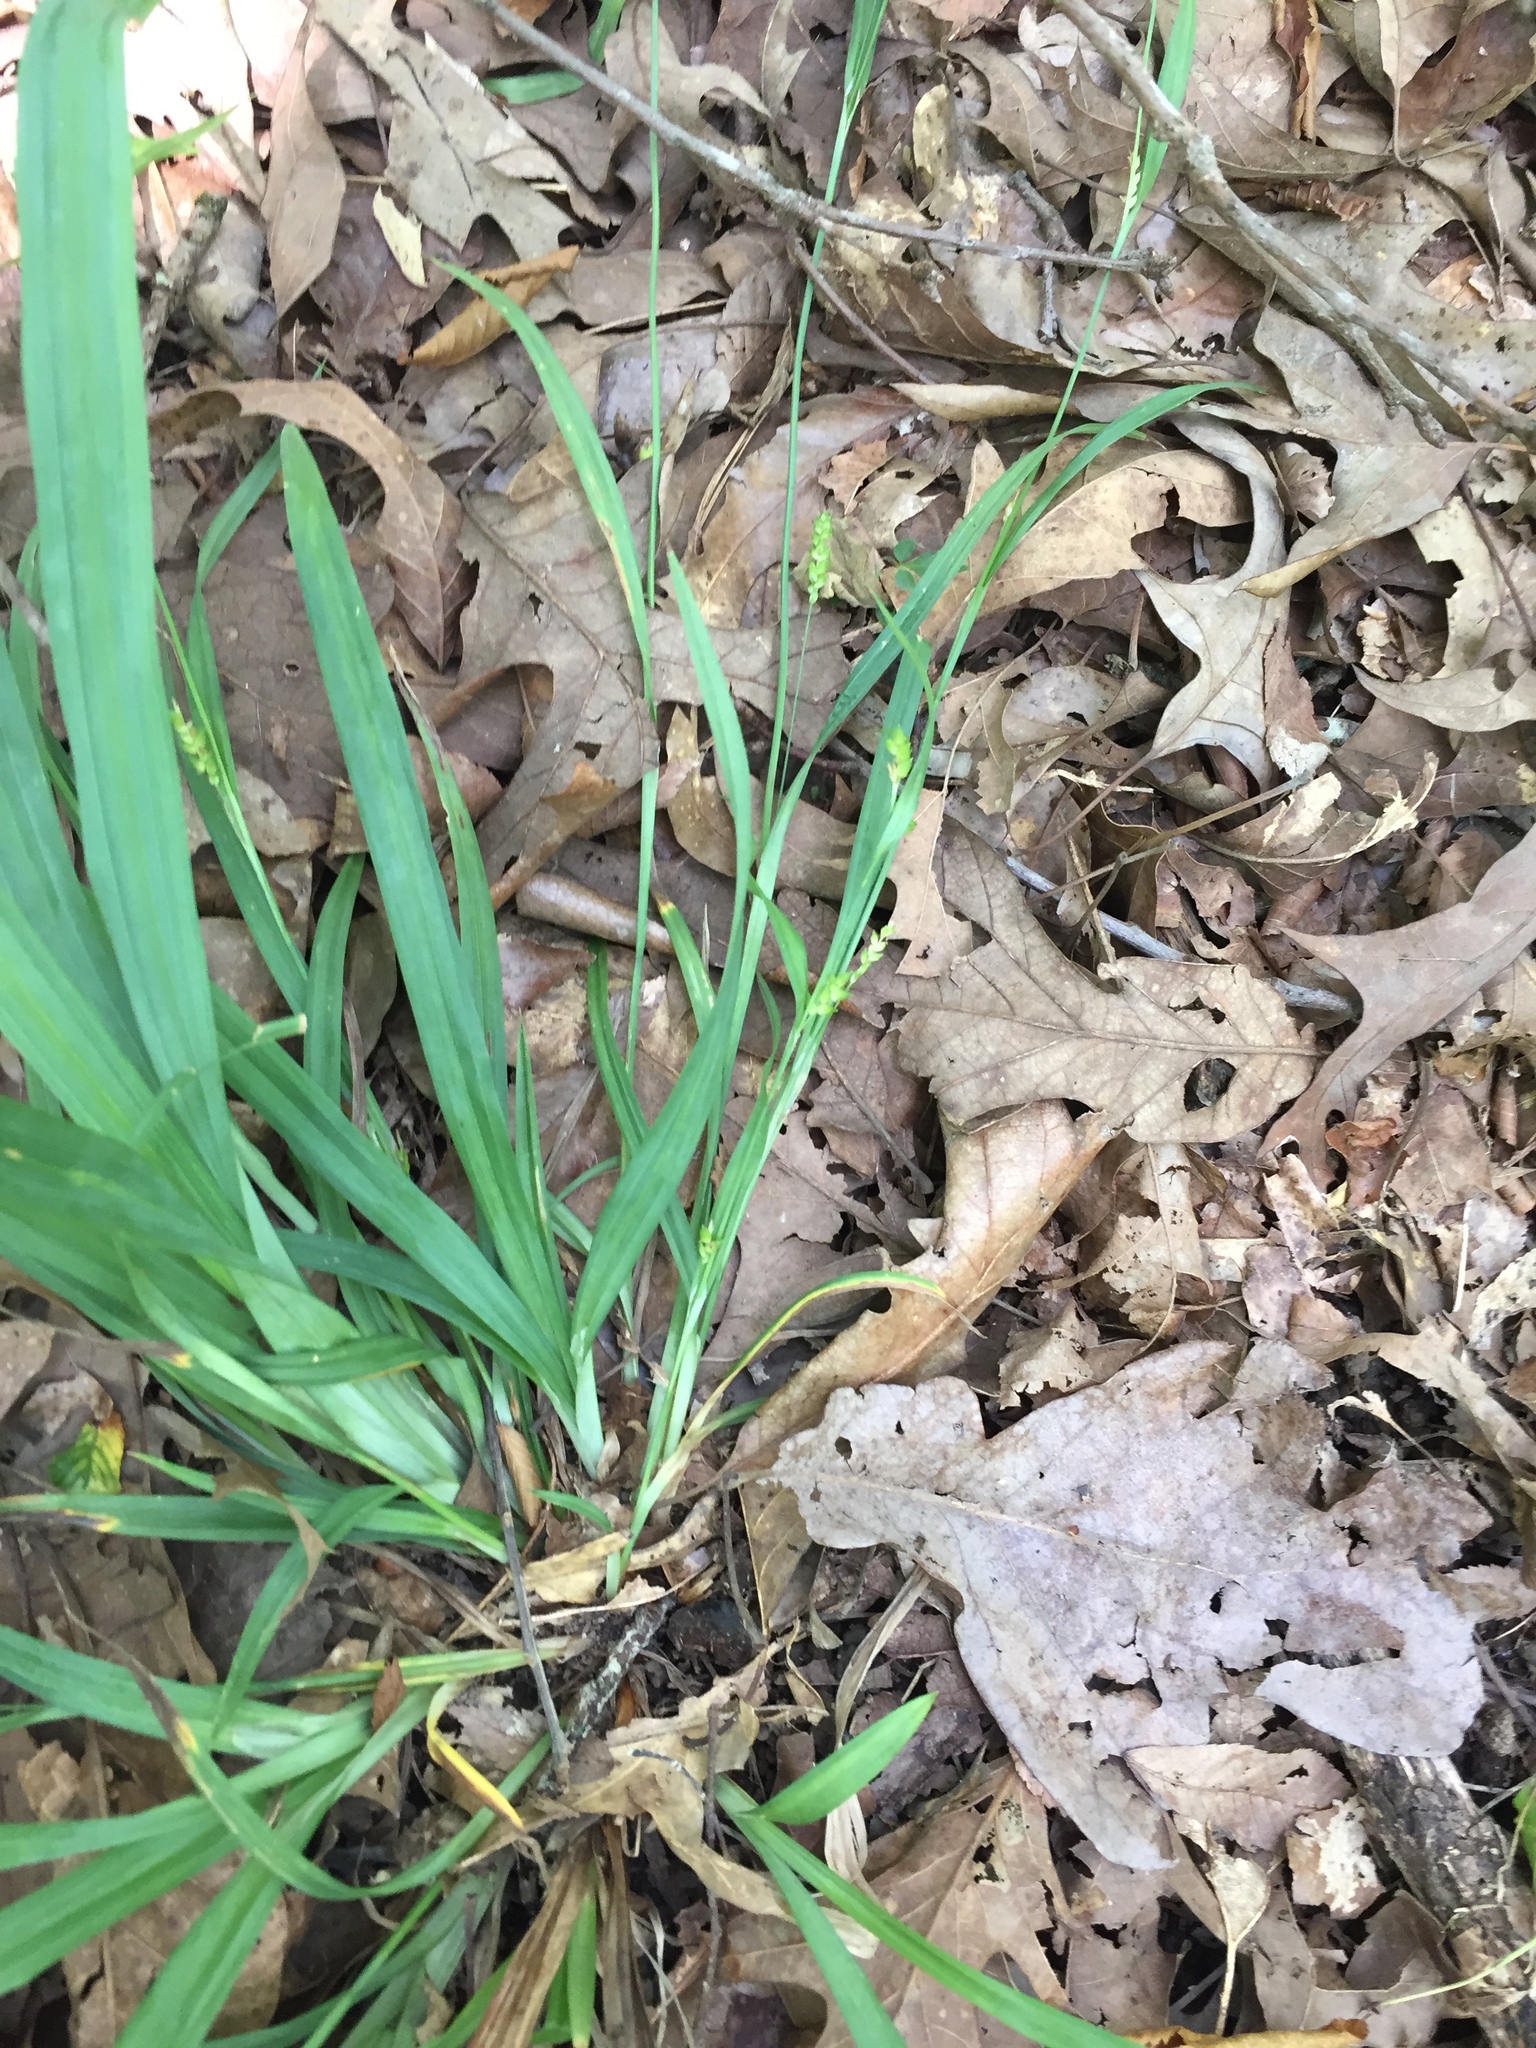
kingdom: Plantae
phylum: Tracheophyta
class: Liliopsida
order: Poales
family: Cyperaceae
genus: Carex
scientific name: Carex flaccosperma
